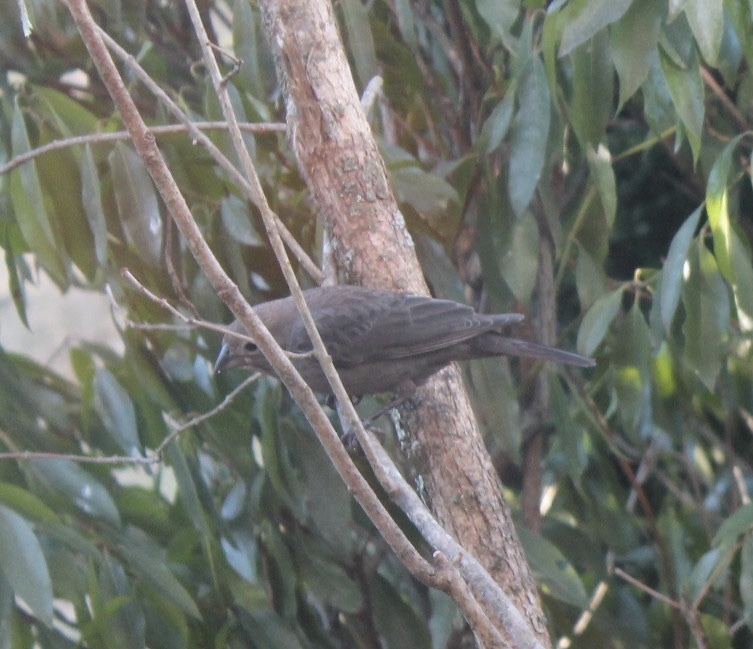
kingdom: Animalia
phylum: Chordata
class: Aves
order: Passeriformes
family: Icteridae
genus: Molothrus
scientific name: Molothrus ater
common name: Brown-headed cowbird
